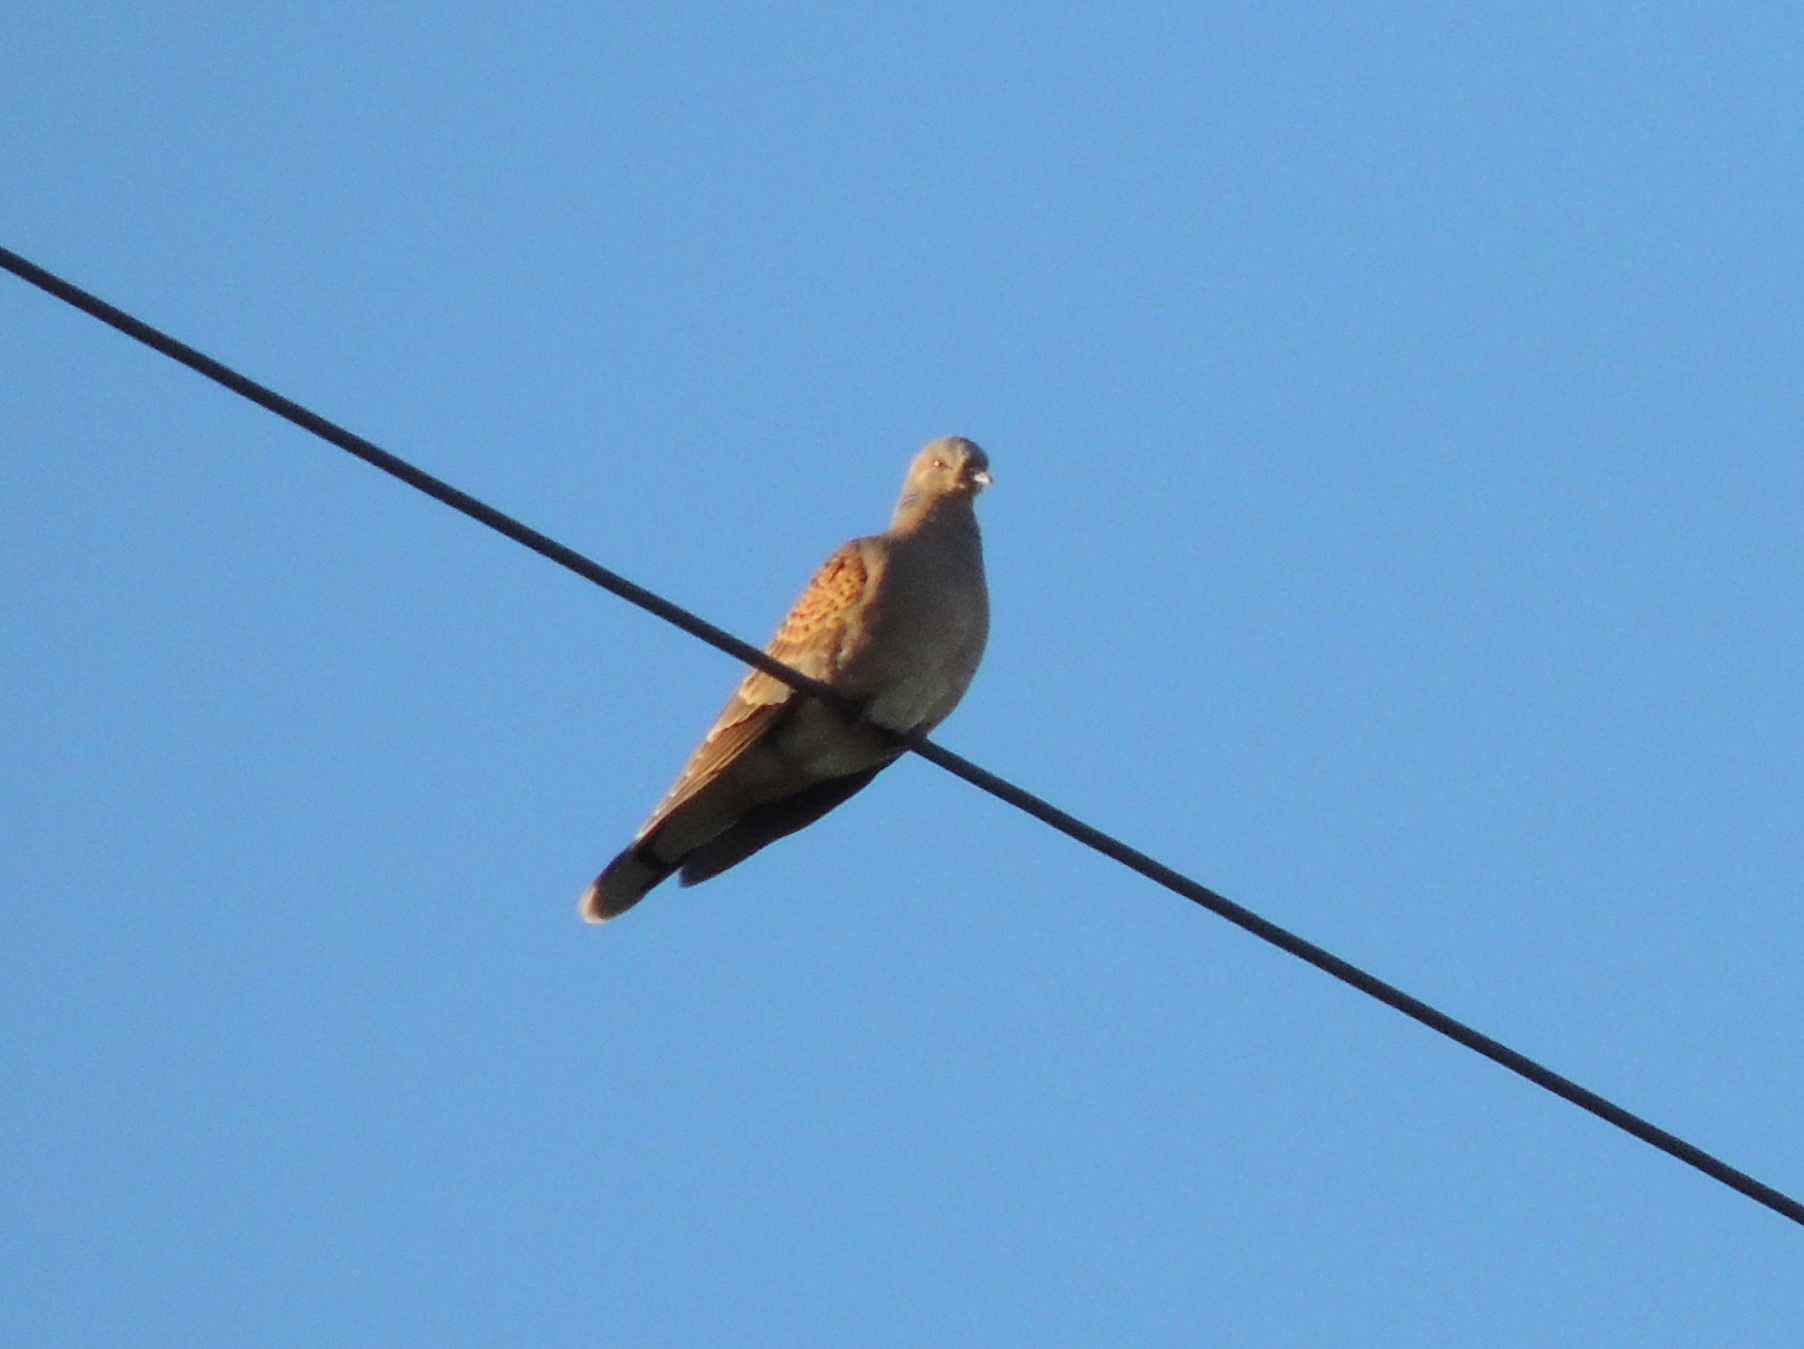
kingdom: Animalia
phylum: Chordata
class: Aves
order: Columbiformes
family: Columbidae
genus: Streptopelia
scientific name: Streptopelia orientalis
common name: Oriental turtle dove
